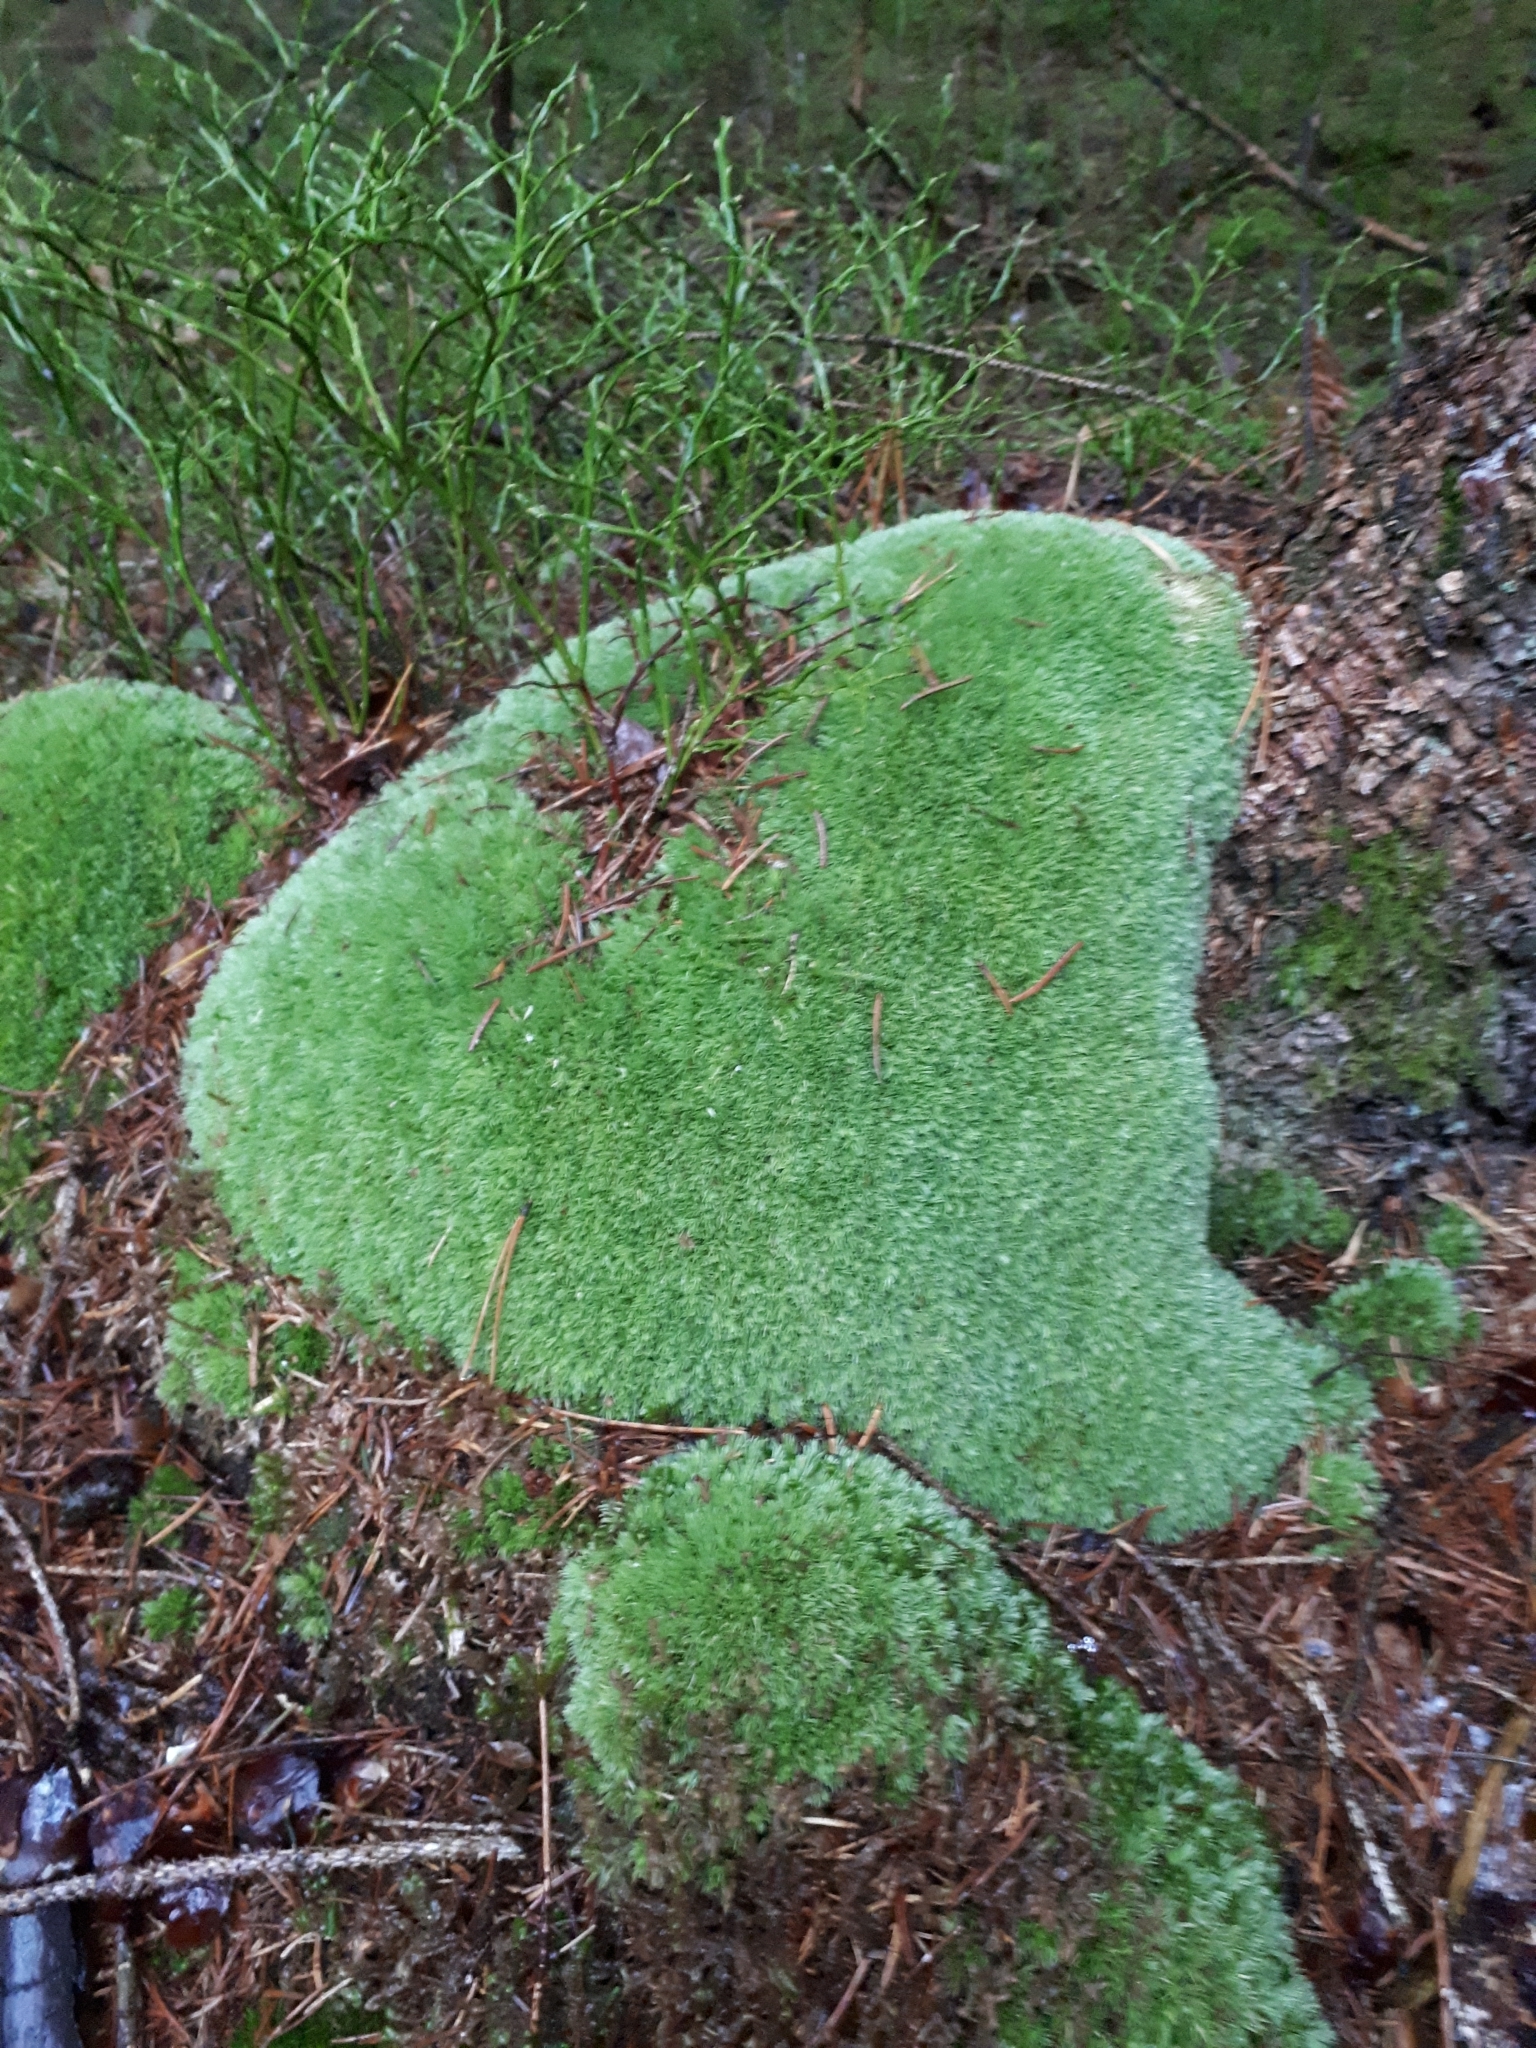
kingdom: Plantae
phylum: Bryophyta
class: Bryopsida
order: Dicranales
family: Leucobryaceae
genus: Leucobryum
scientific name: Leucobryum glaucum
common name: Large white-moss
